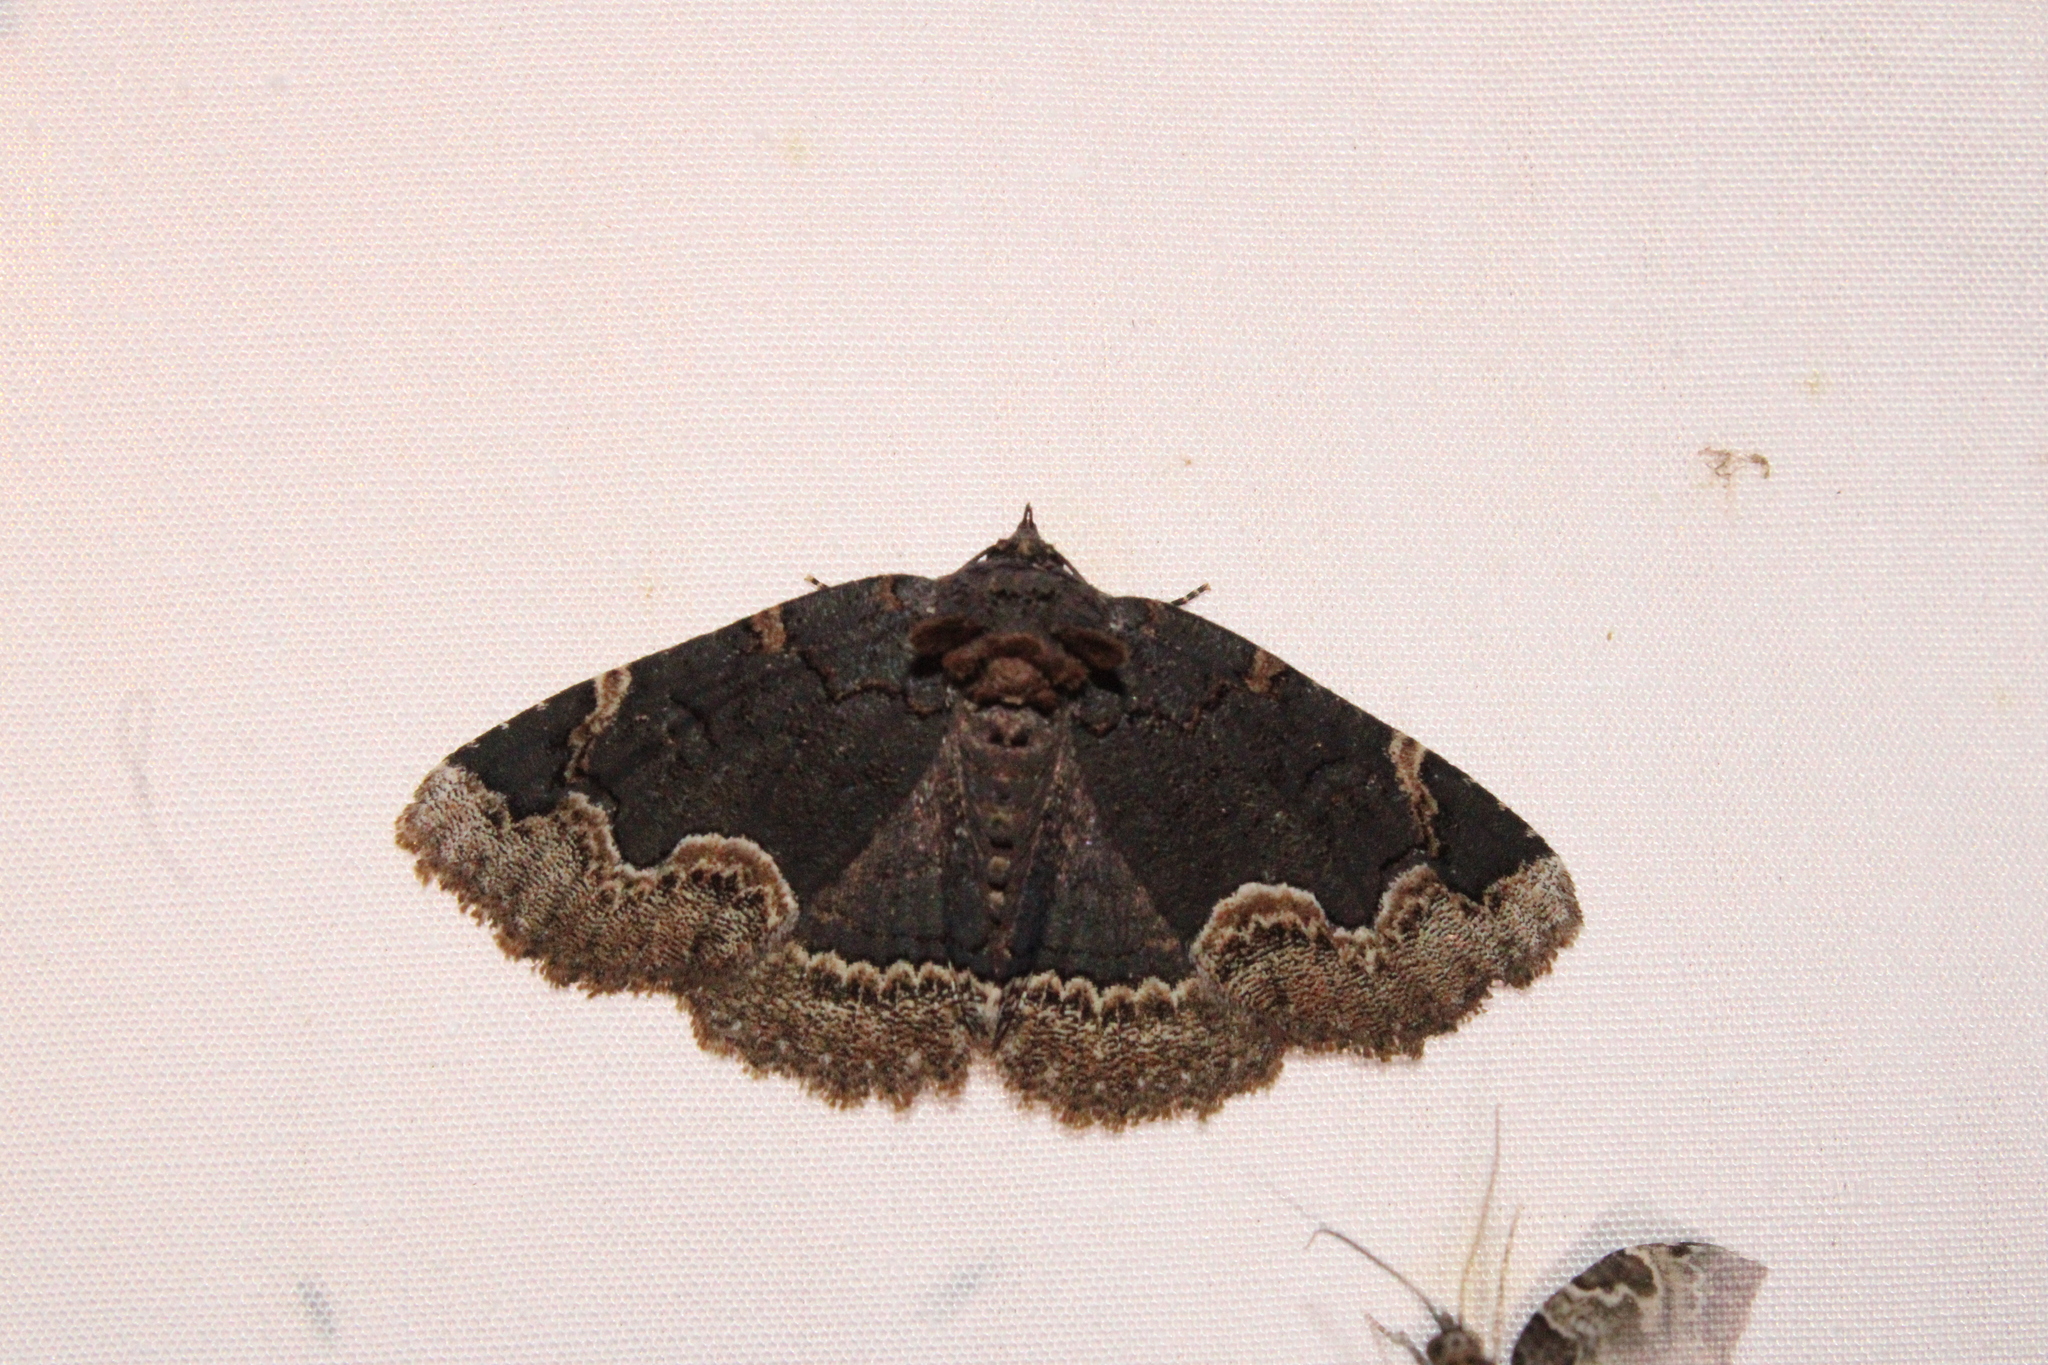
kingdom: Animalia
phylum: Arthropoda
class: Insecta
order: Lepidoptera
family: Erebidae
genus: Zale
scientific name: Zale horrida
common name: Horrid zale moth
